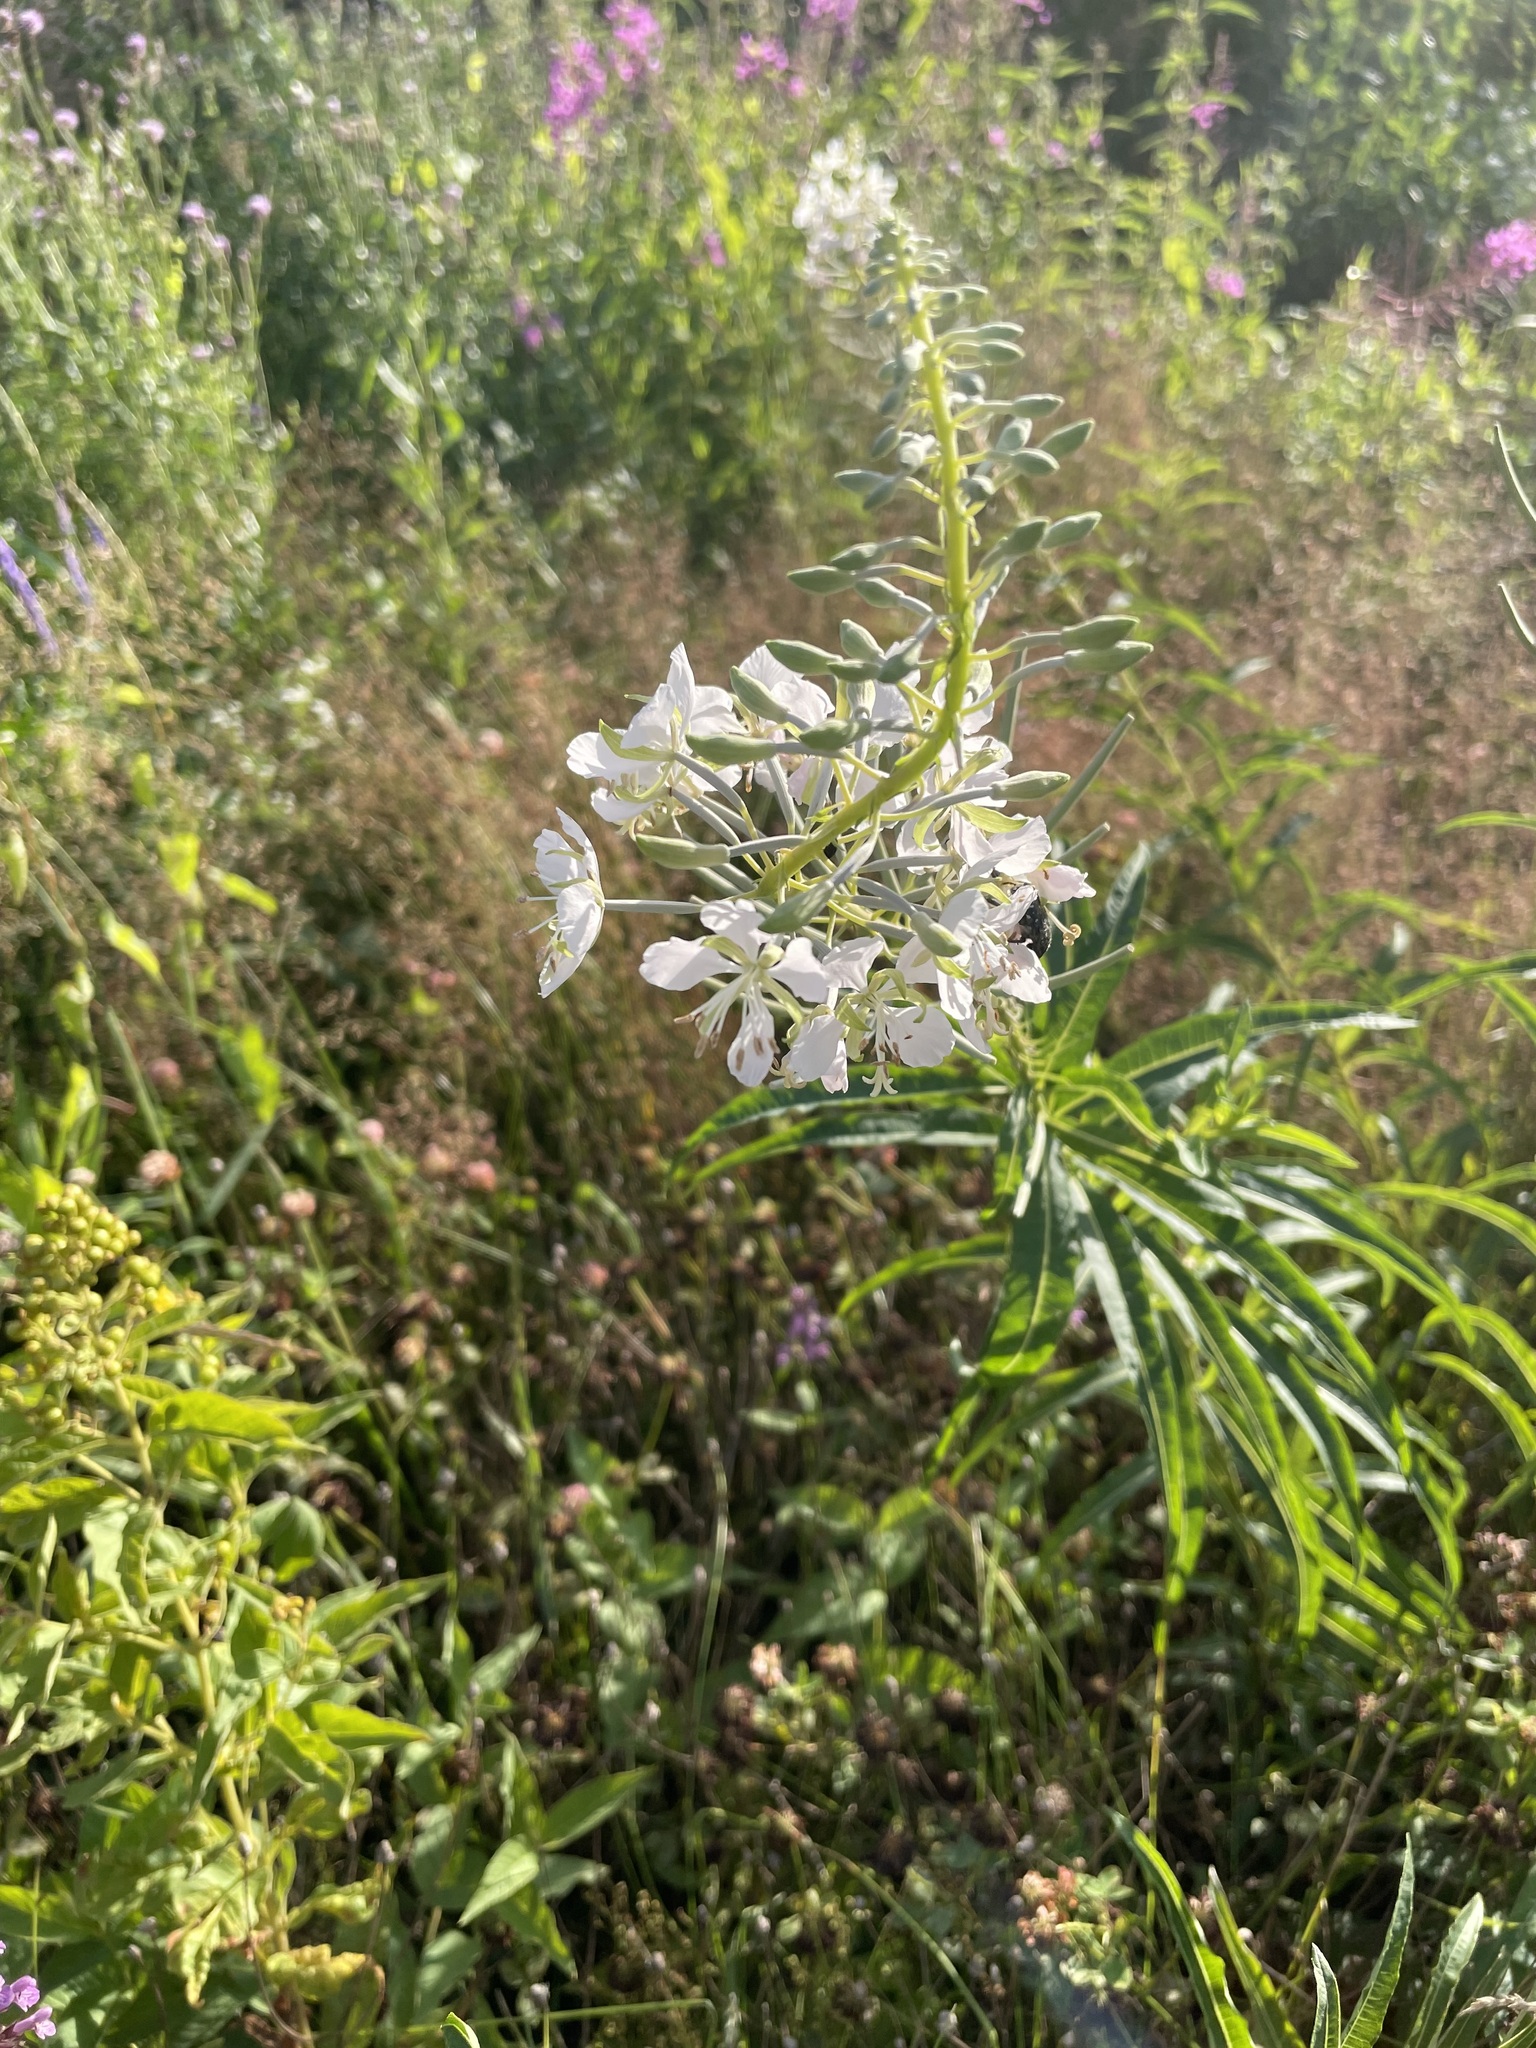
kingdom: Plantae
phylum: Tracheophyta
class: Magnoliopsida
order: Myrtales
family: Onagraceae
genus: Chamaenerion
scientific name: Chamaenerion angustifolium
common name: Fireweed
